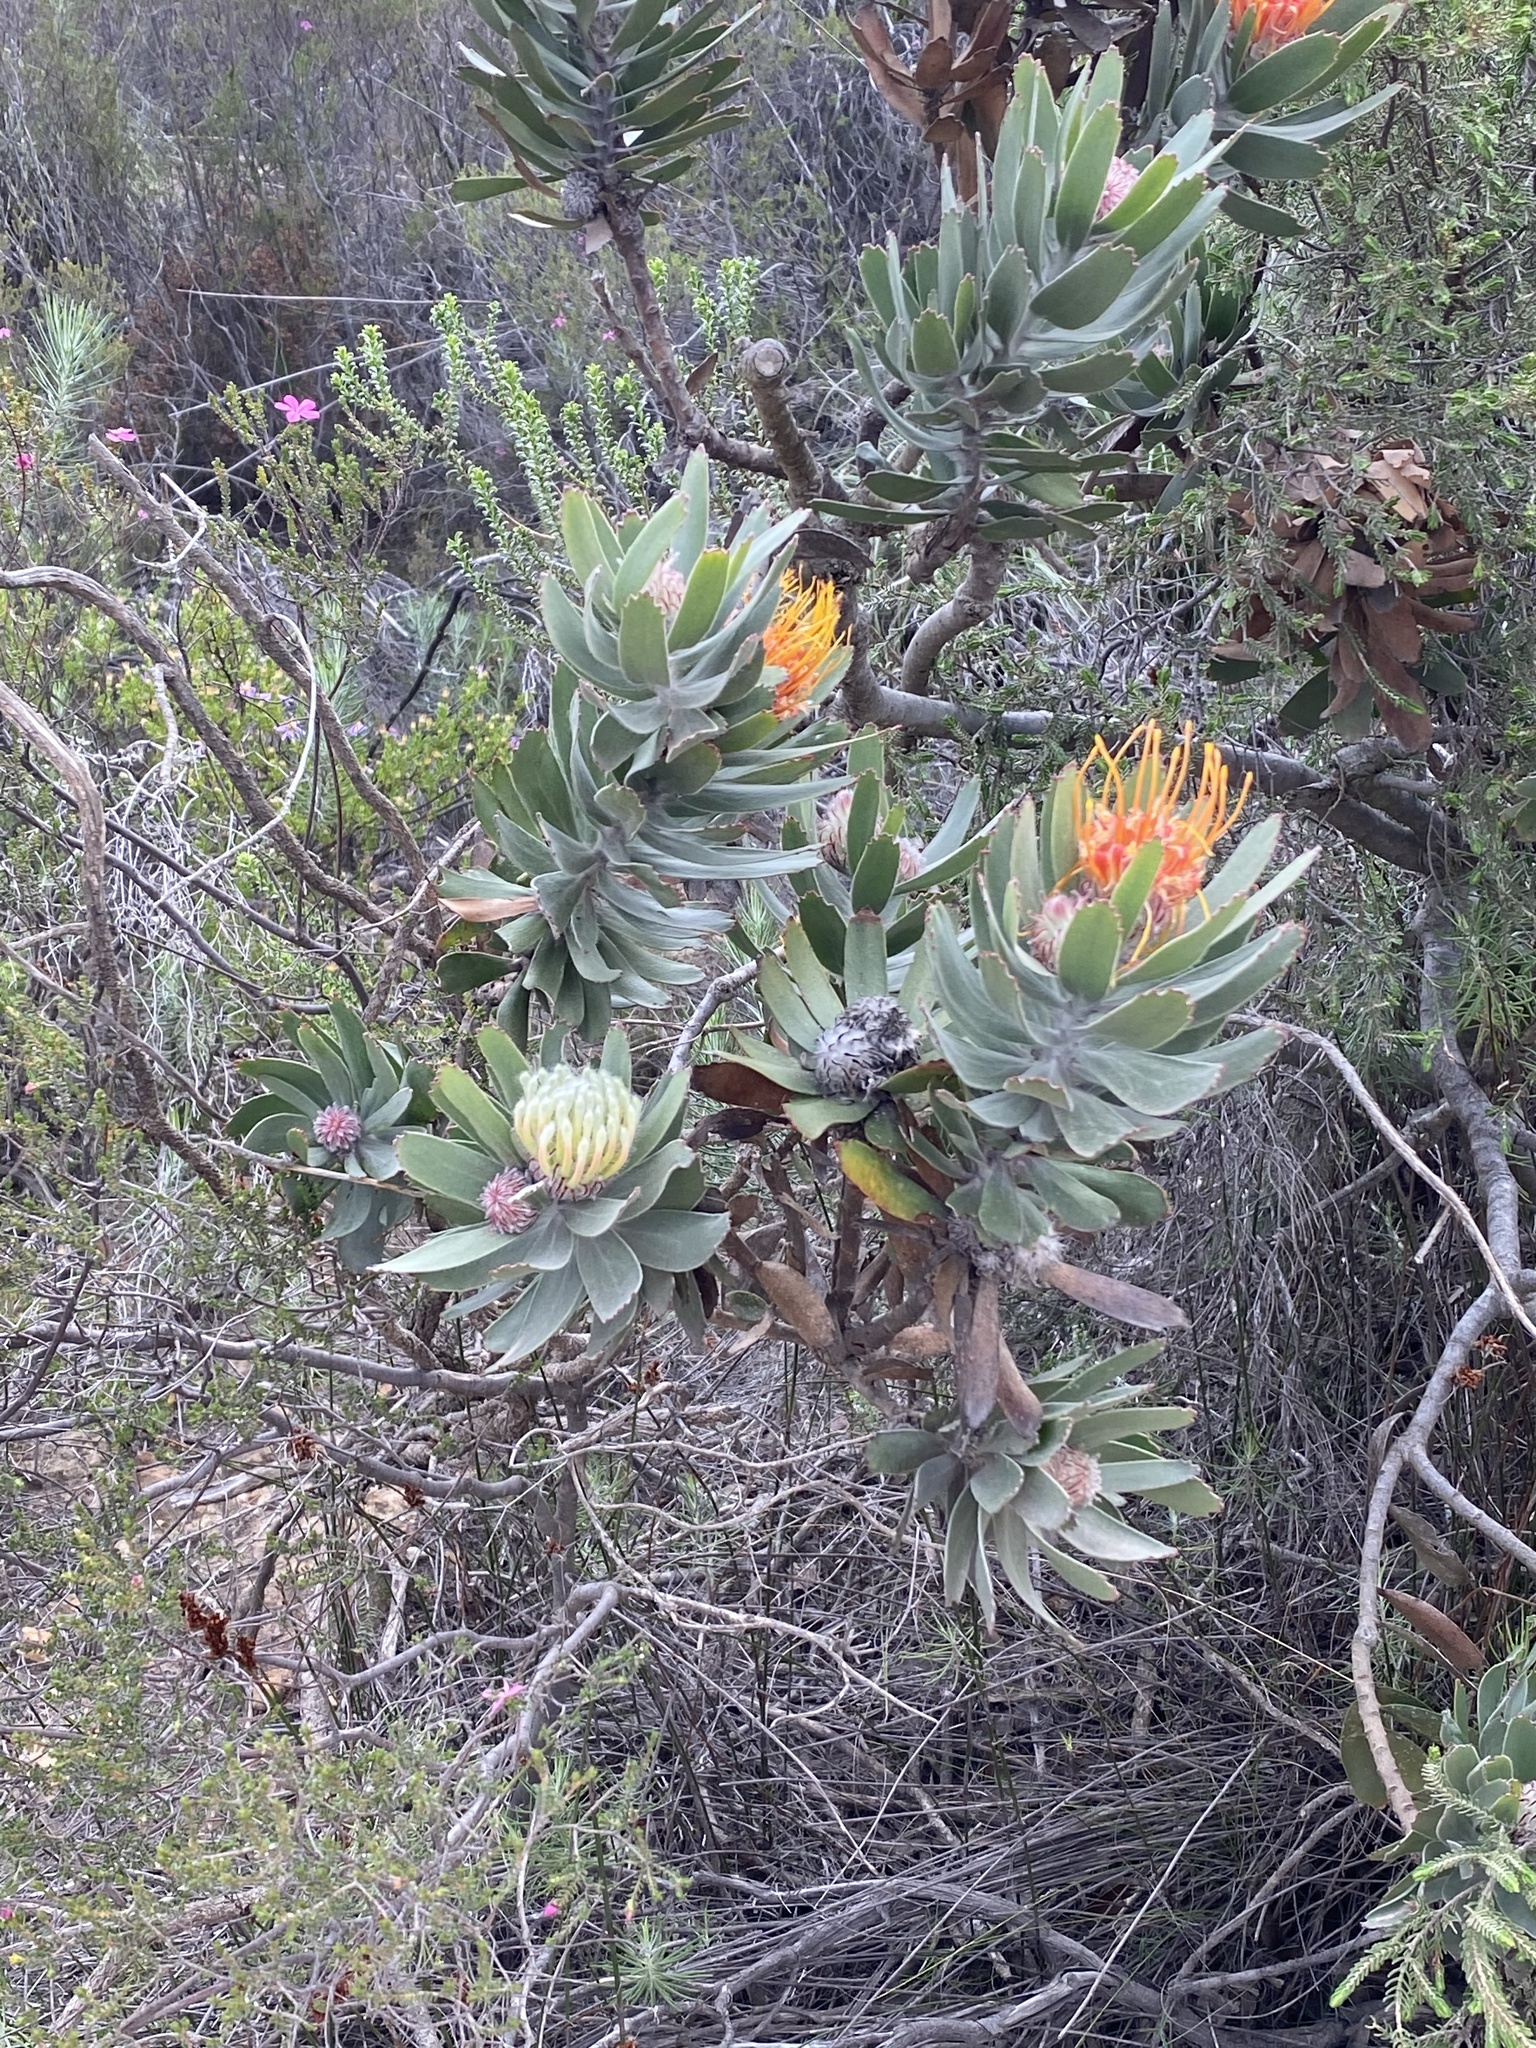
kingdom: Plantae
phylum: Tracheophyta
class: Magnoliopsida
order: Proteales
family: Proteaceae
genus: Leucospermum
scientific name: Leucospermum pluridens
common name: Robinson pincushion
